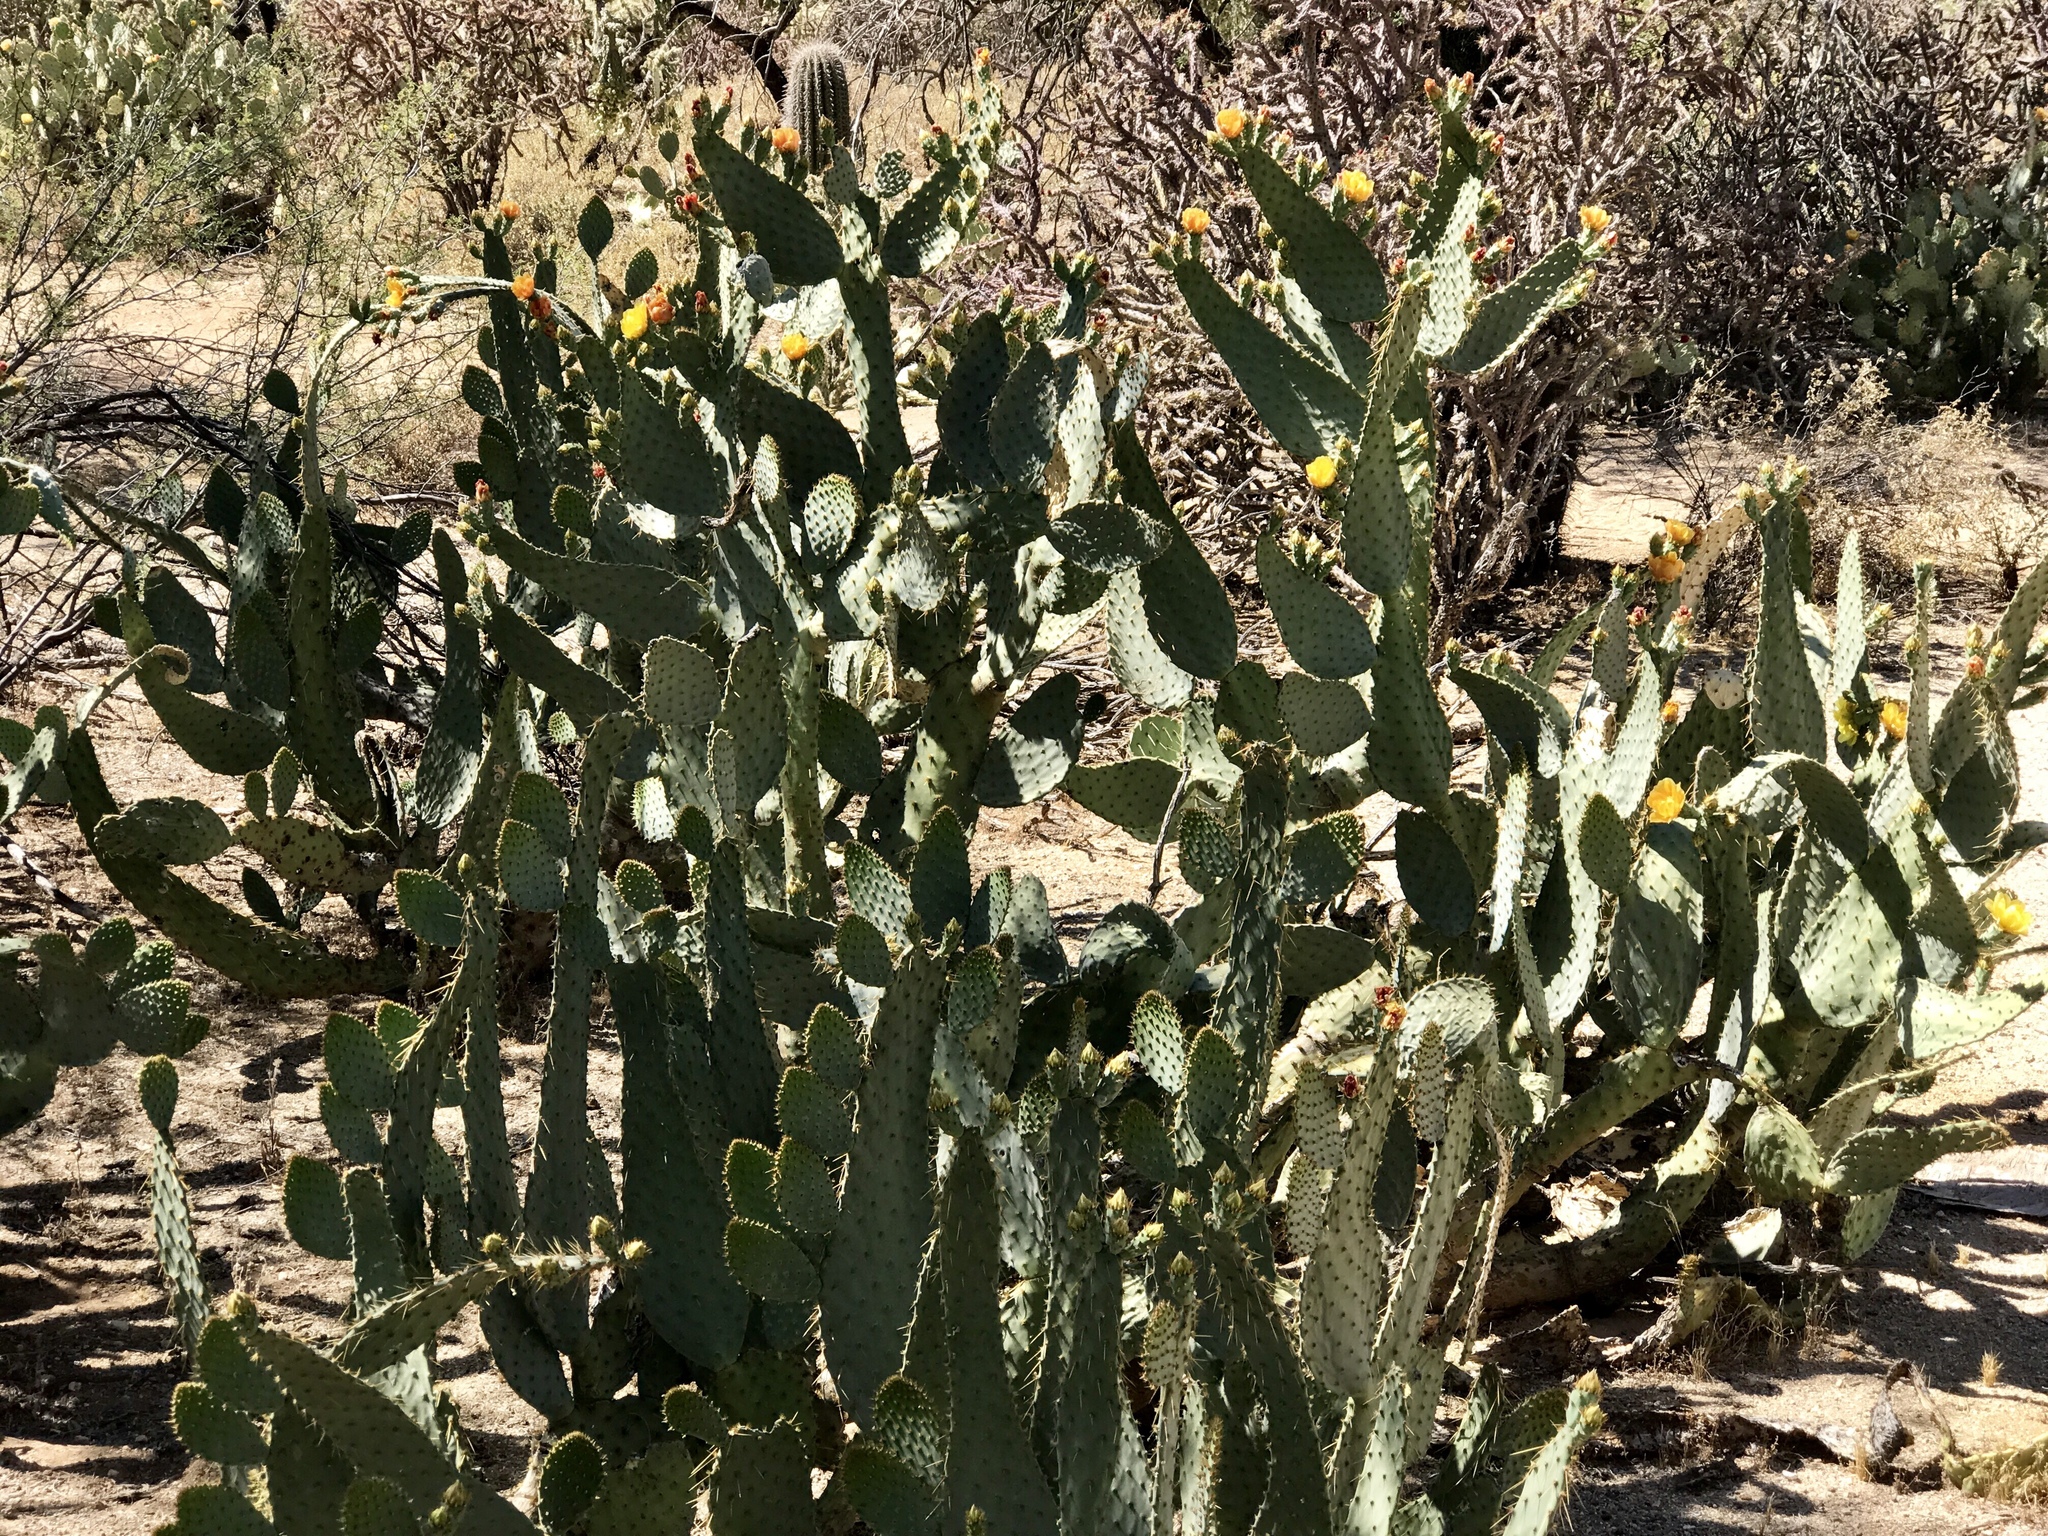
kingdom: Plantae
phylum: Tracheophyta
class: Magnoliopsida
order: Caryophyllales
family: Cactaceae
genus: Opuntia
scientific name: Opuntia engelmannii
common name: Cactus-apple
